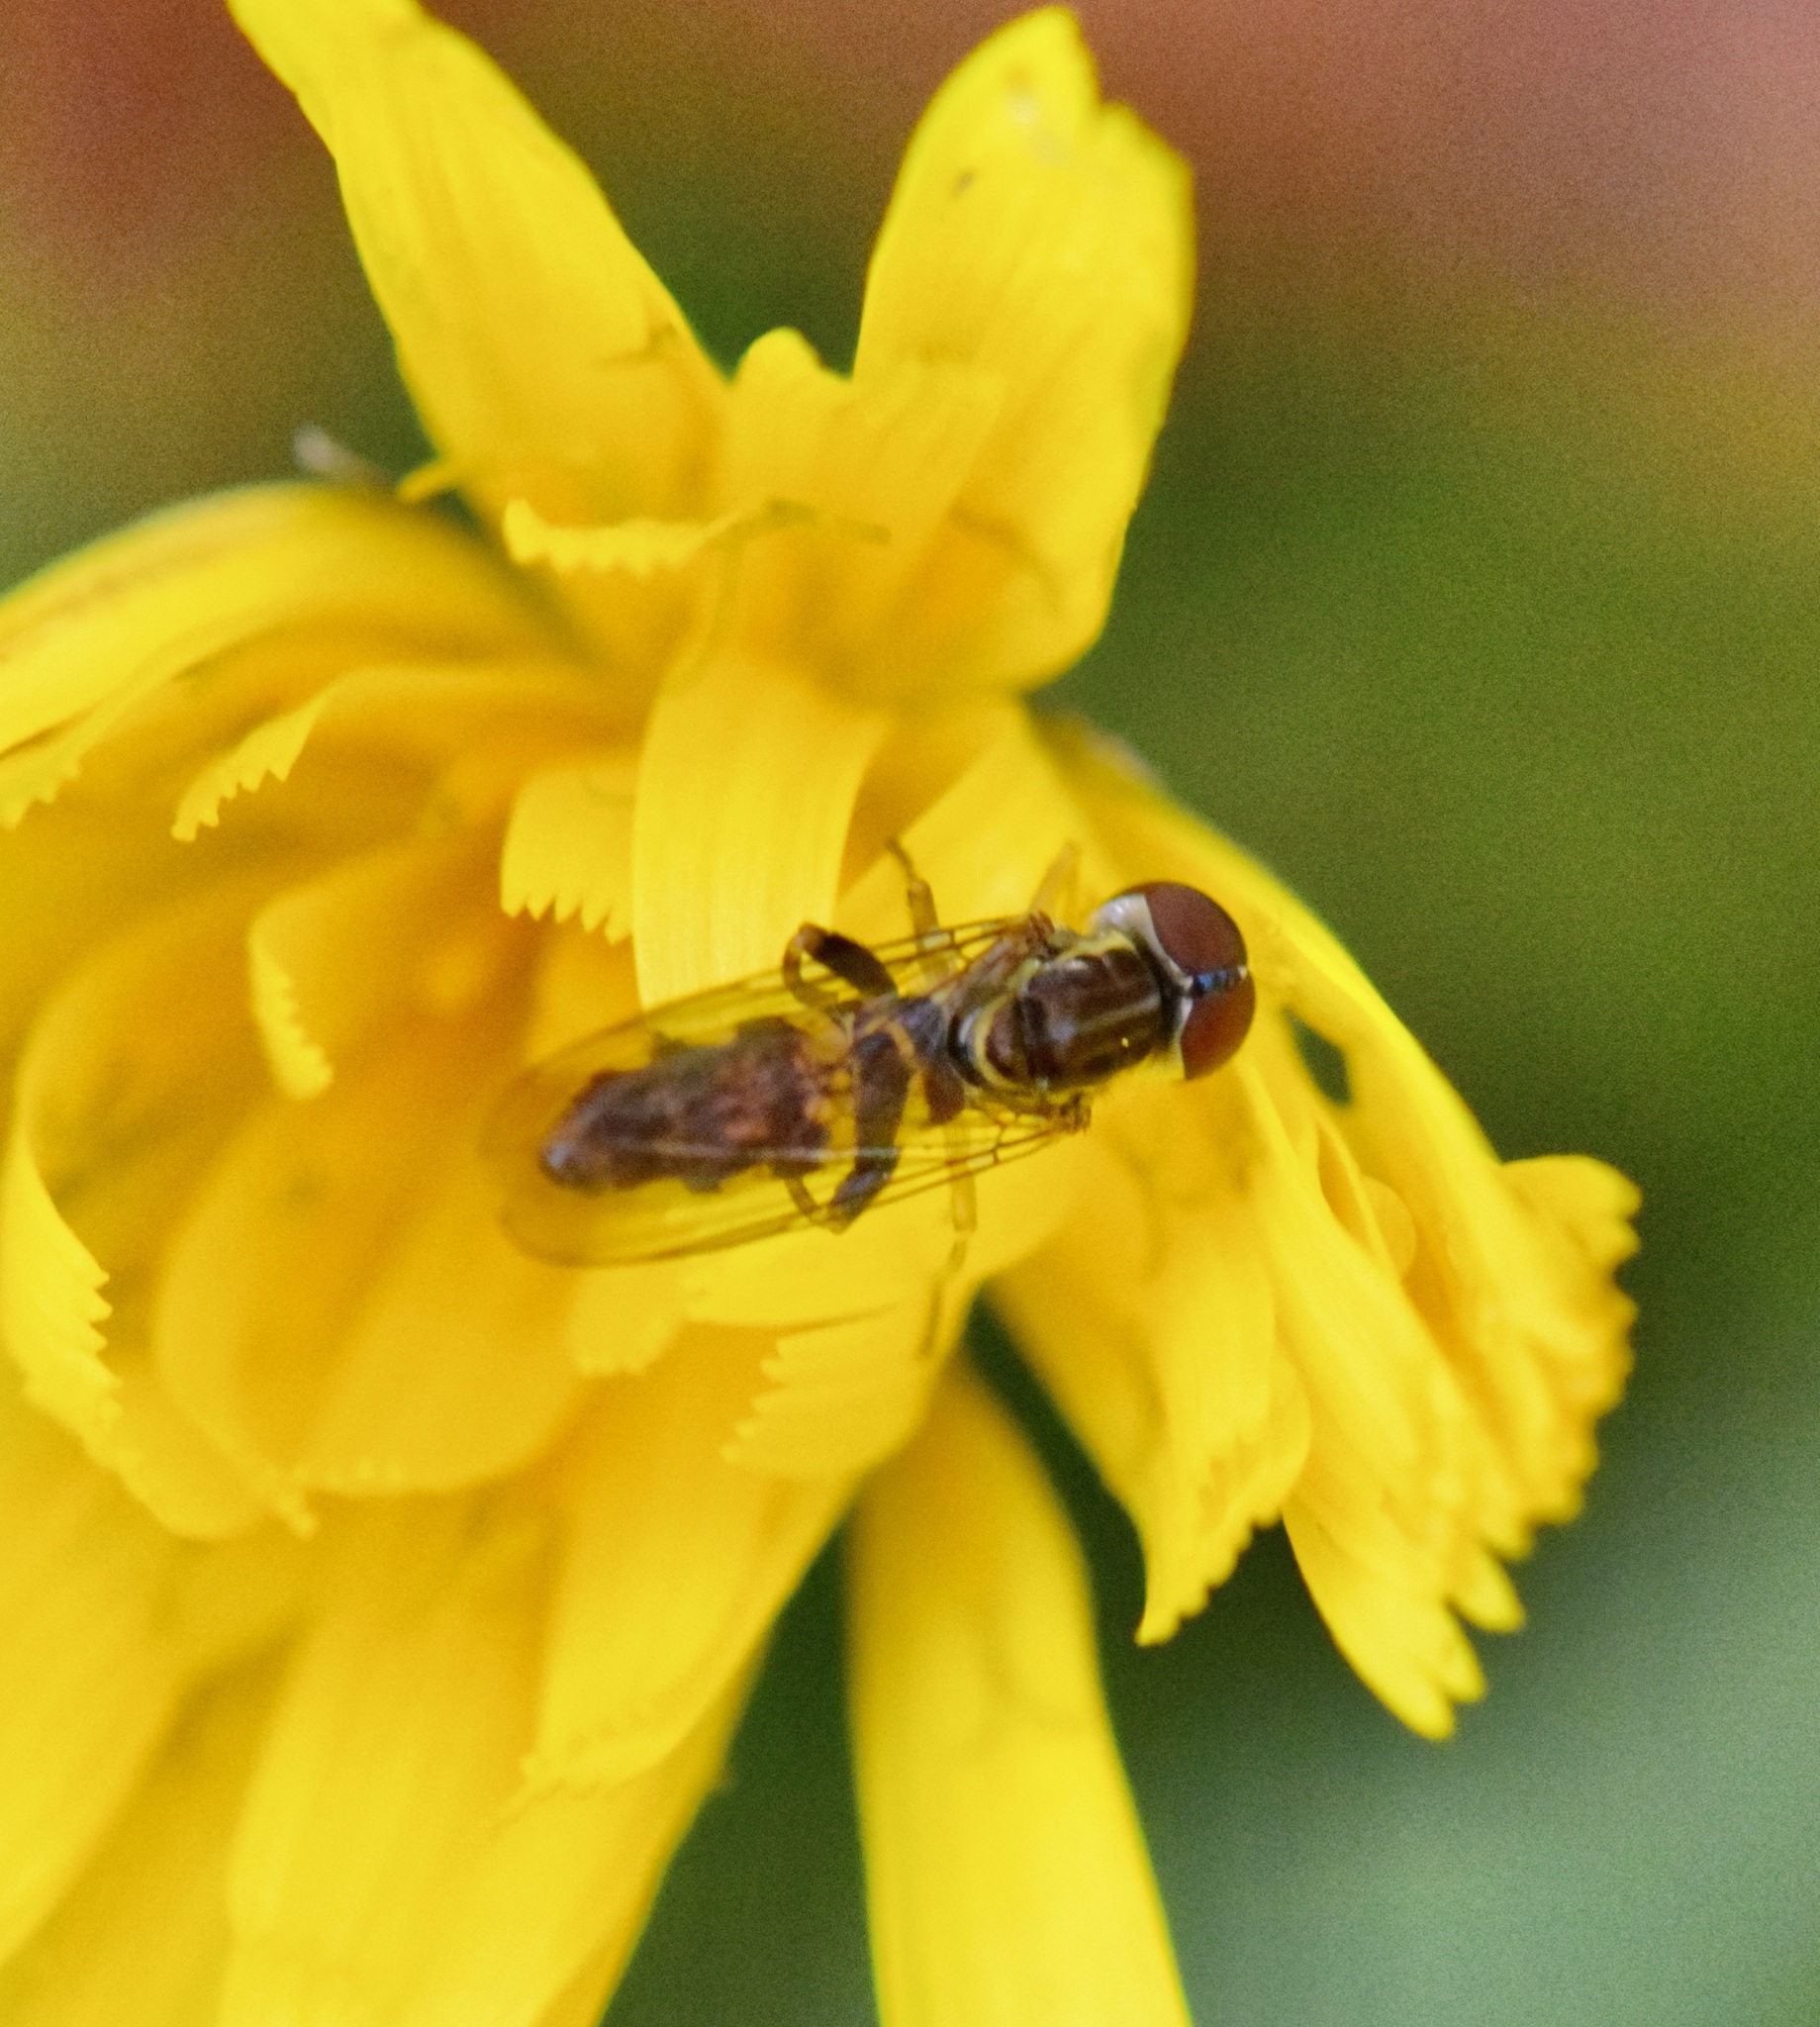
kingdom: Animalia
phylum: Arthropoda
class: Insecta
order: Diptera
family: Syrphidae
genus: Toxomerus
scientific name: Toxomerus geminatus
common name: Eastern calligrapher
